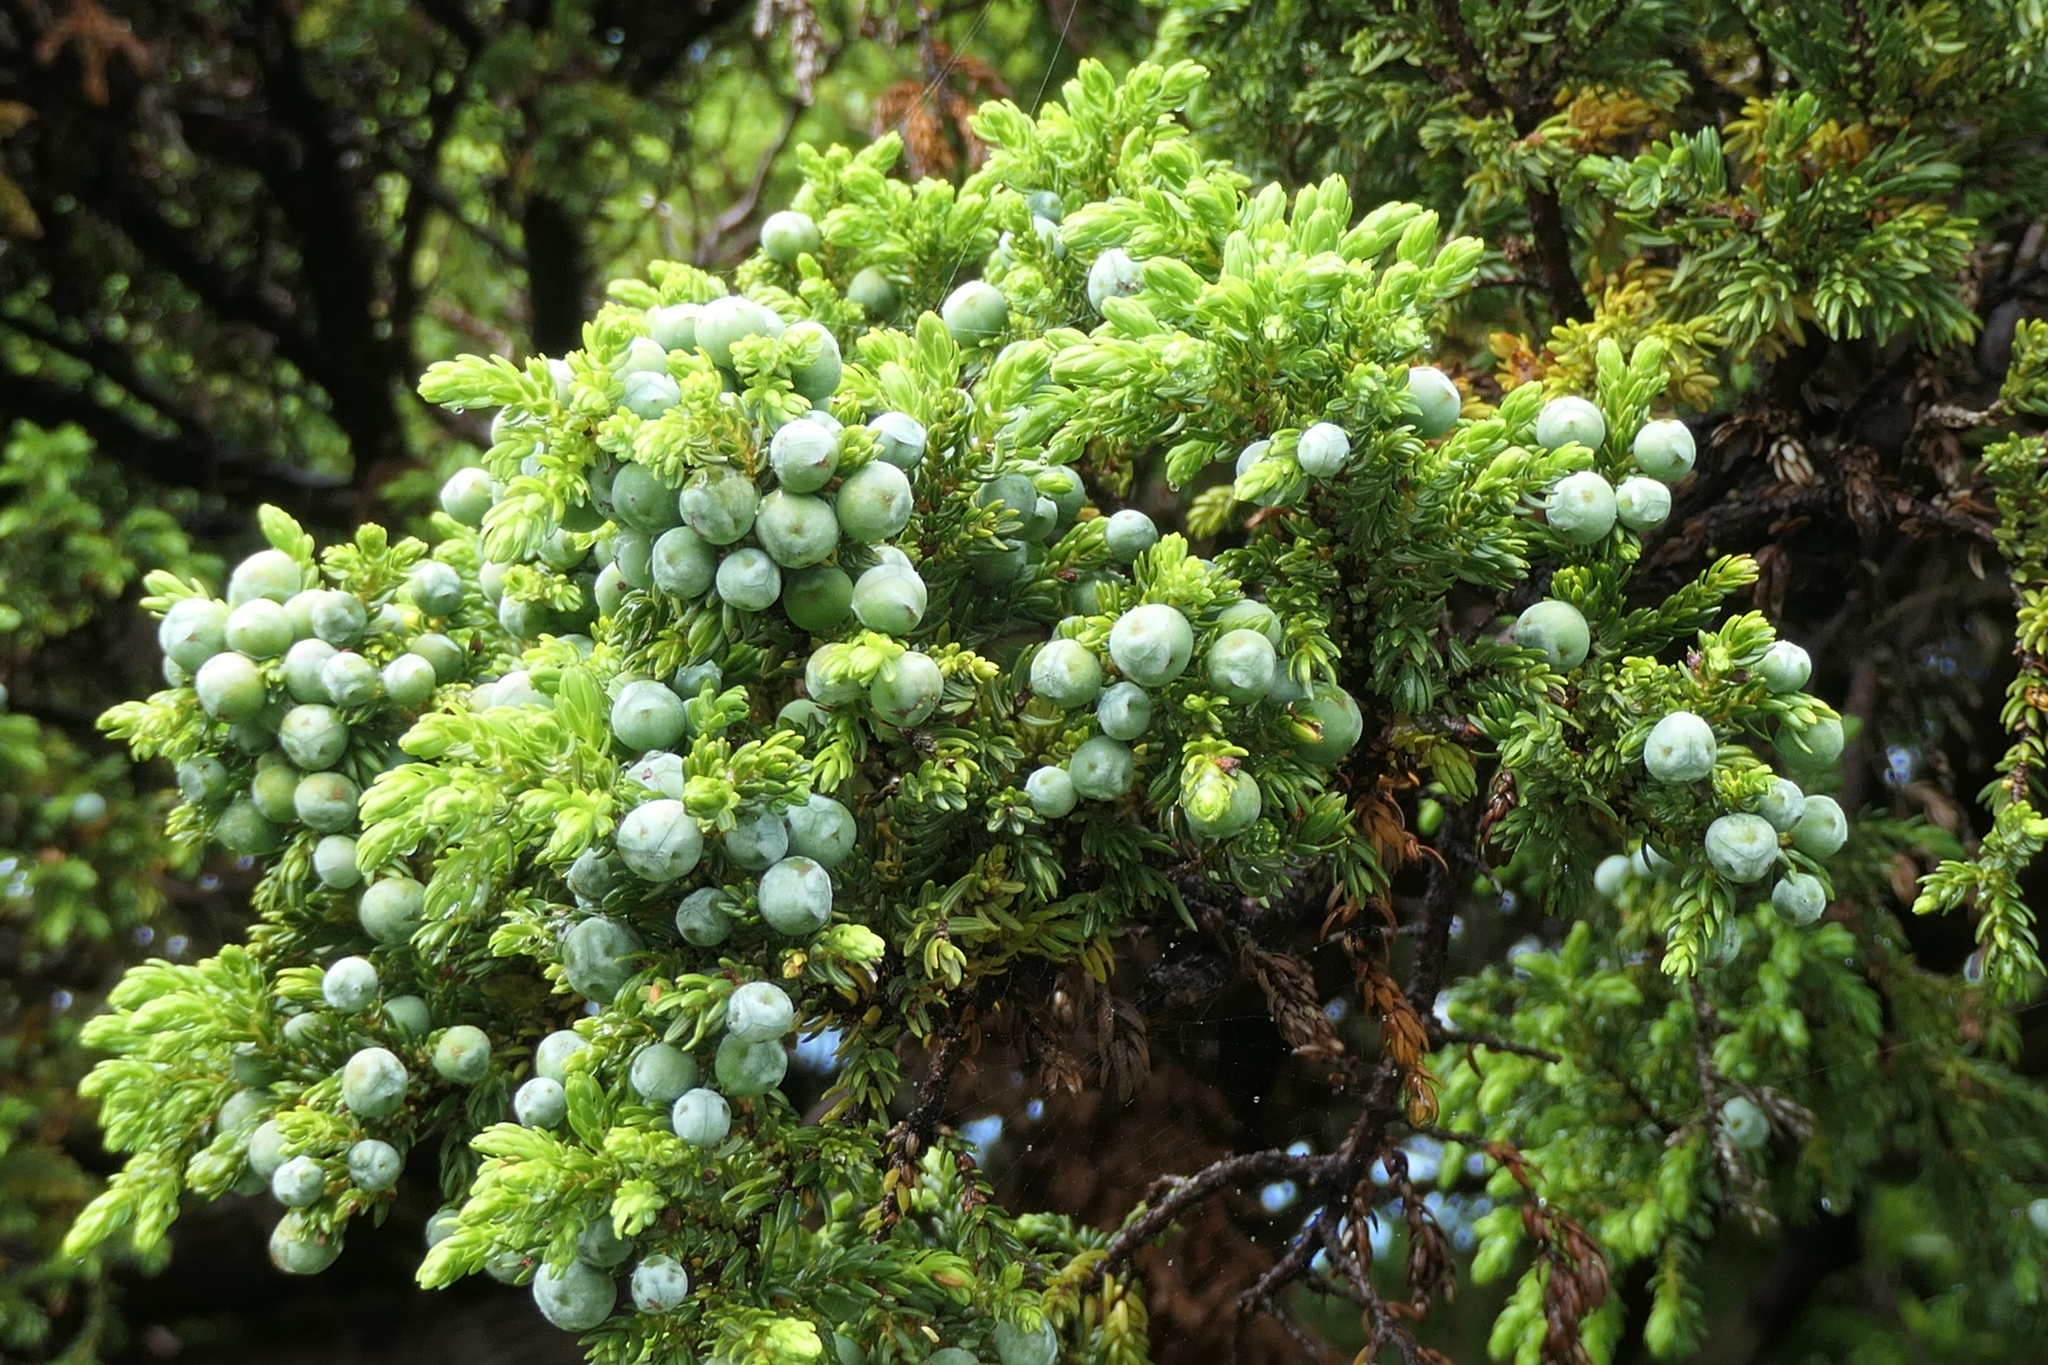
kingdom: Plantae
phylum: Tracheophyta
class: Pinopsida
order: Pinales
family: Cupressaceae
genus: Juniperus
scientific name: Juniperus brevifolia
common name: Azores juniper
